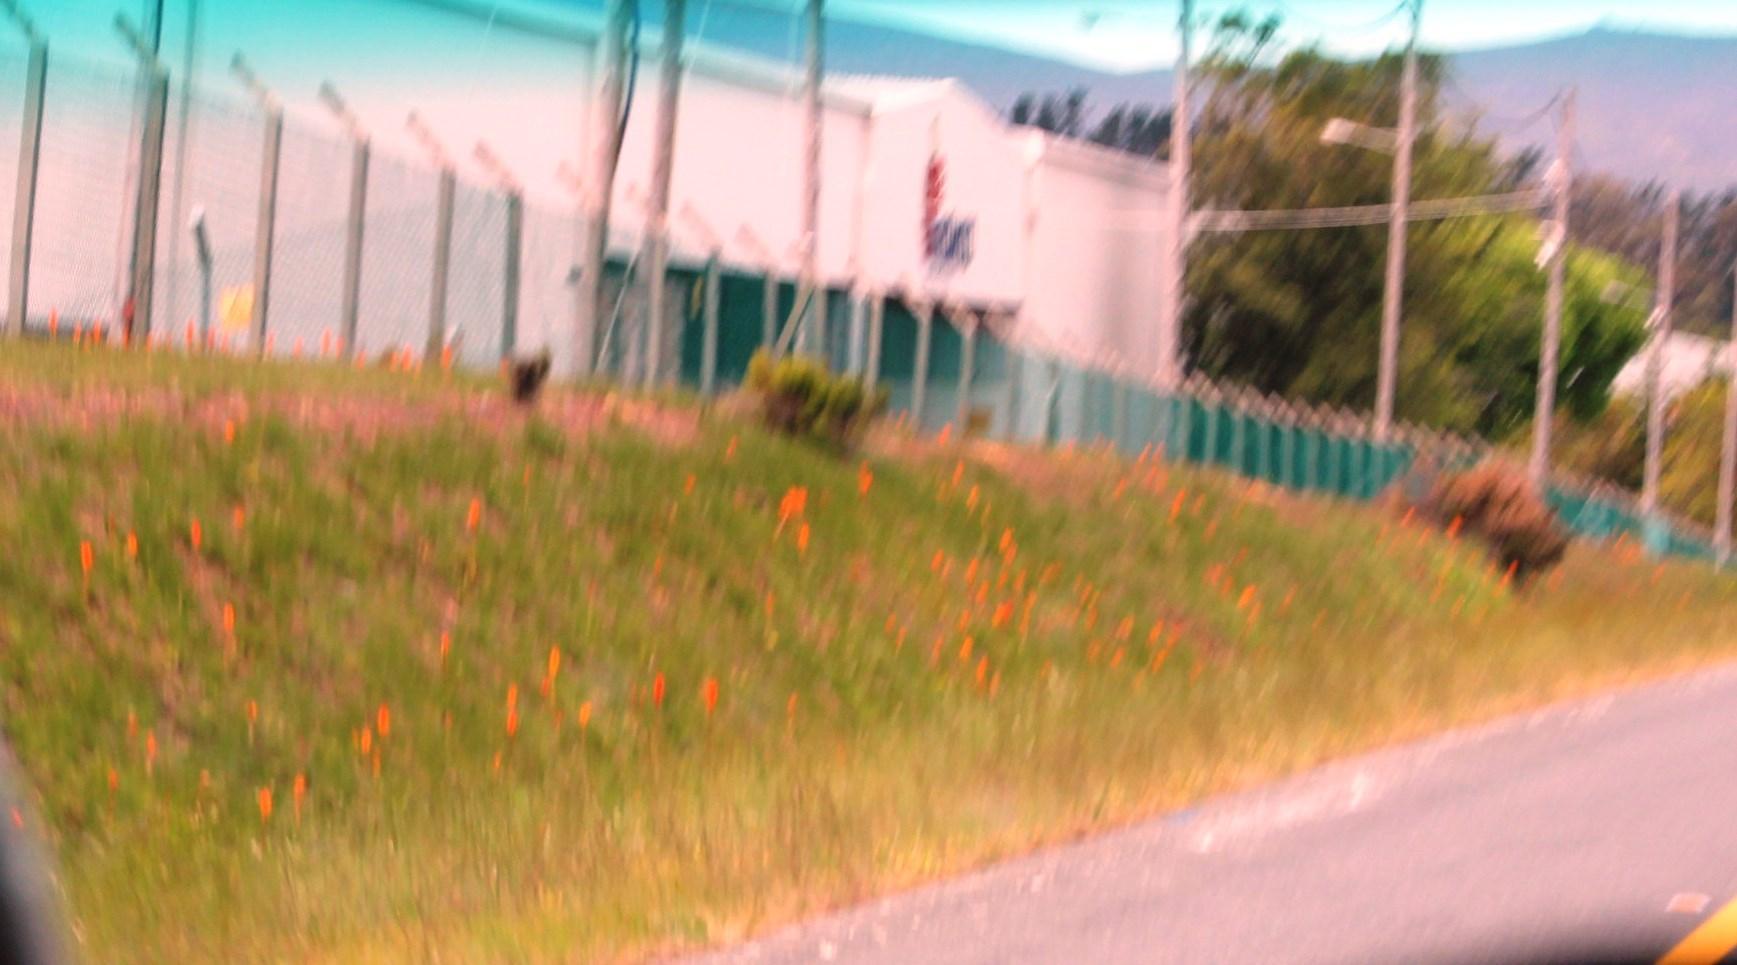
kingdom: Plantae
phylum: Tracheophyta
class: Liliopsida
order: Asparagales
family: Orchidaceae
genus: Satyrium
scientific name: Satyrium coriifolium
